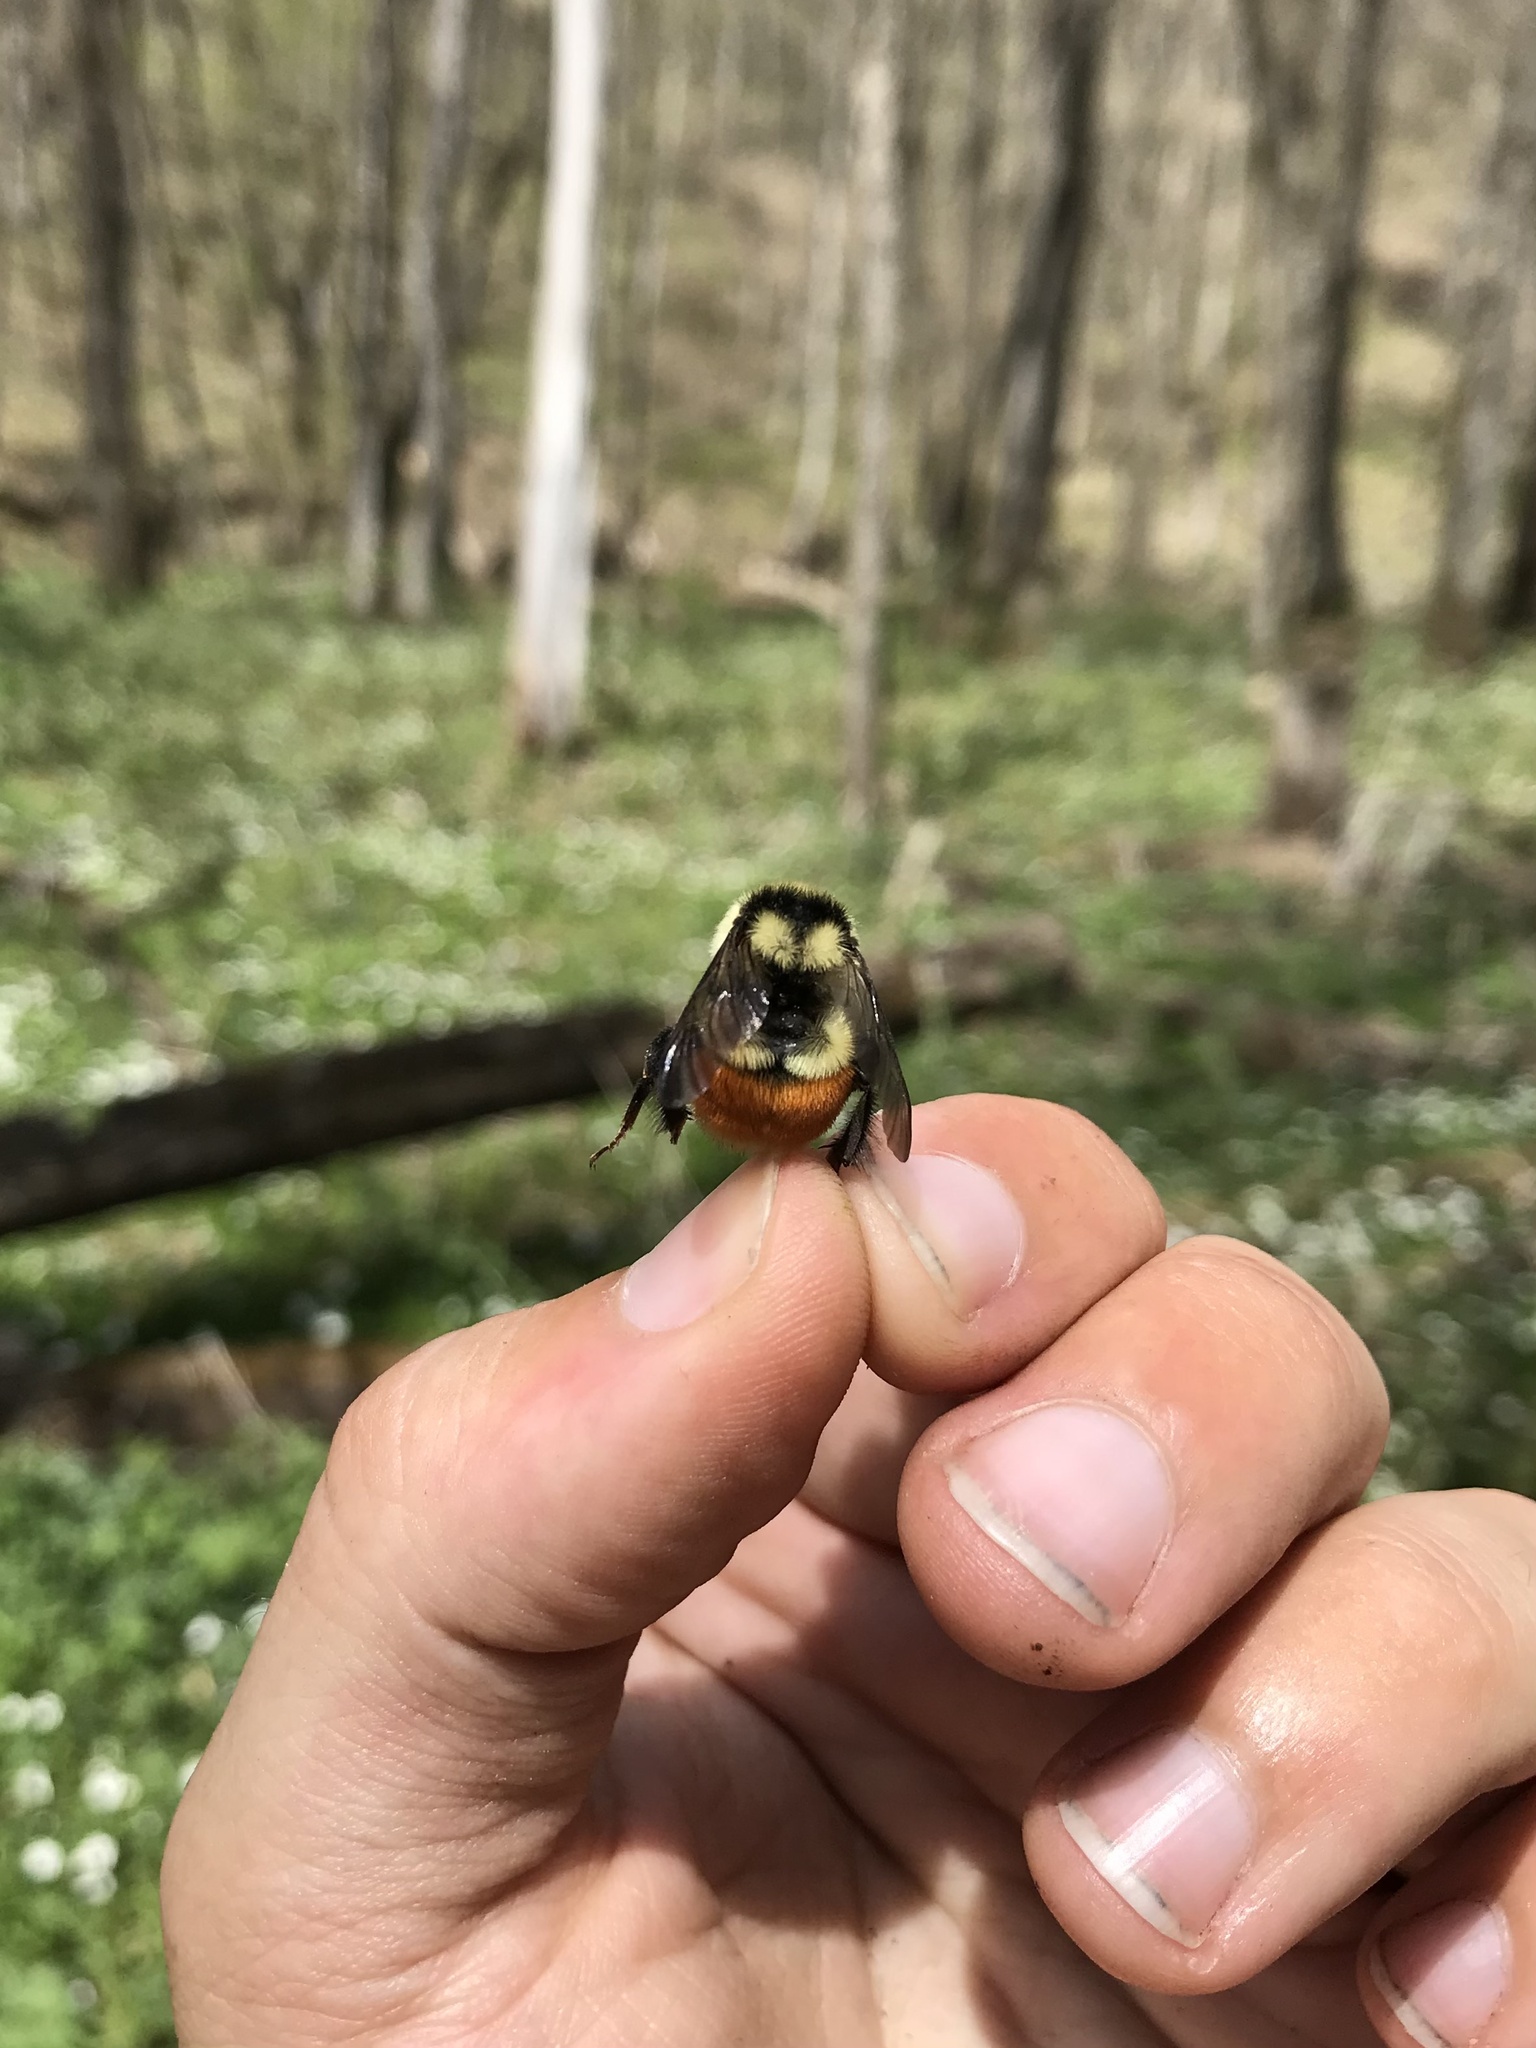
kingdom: Animalia
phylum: Arthropoda
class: Insecta
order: Hymenoptera
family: Apidae
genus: Bombus
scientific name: Bombus ternarius
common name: Tri-colored bumble bee
